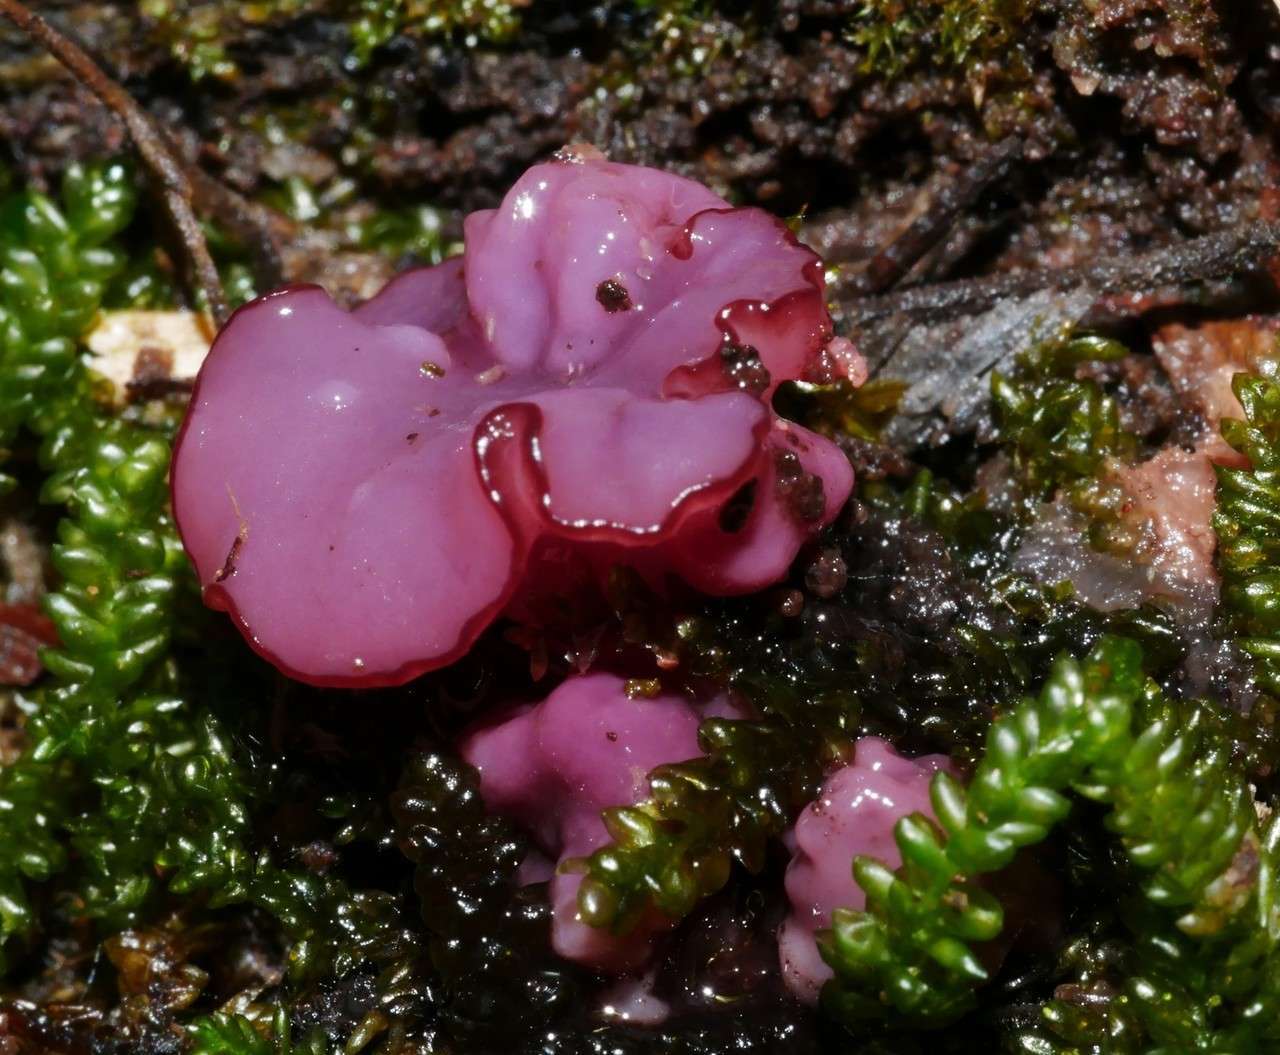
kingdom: Fungi
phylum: Ascomycota
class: Leotiomycetes
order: Helotiales
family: Gelatinodiscaceae
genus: Ascocoryne
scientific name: Ascocoryne sarcoides
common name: Purple jellydisc
